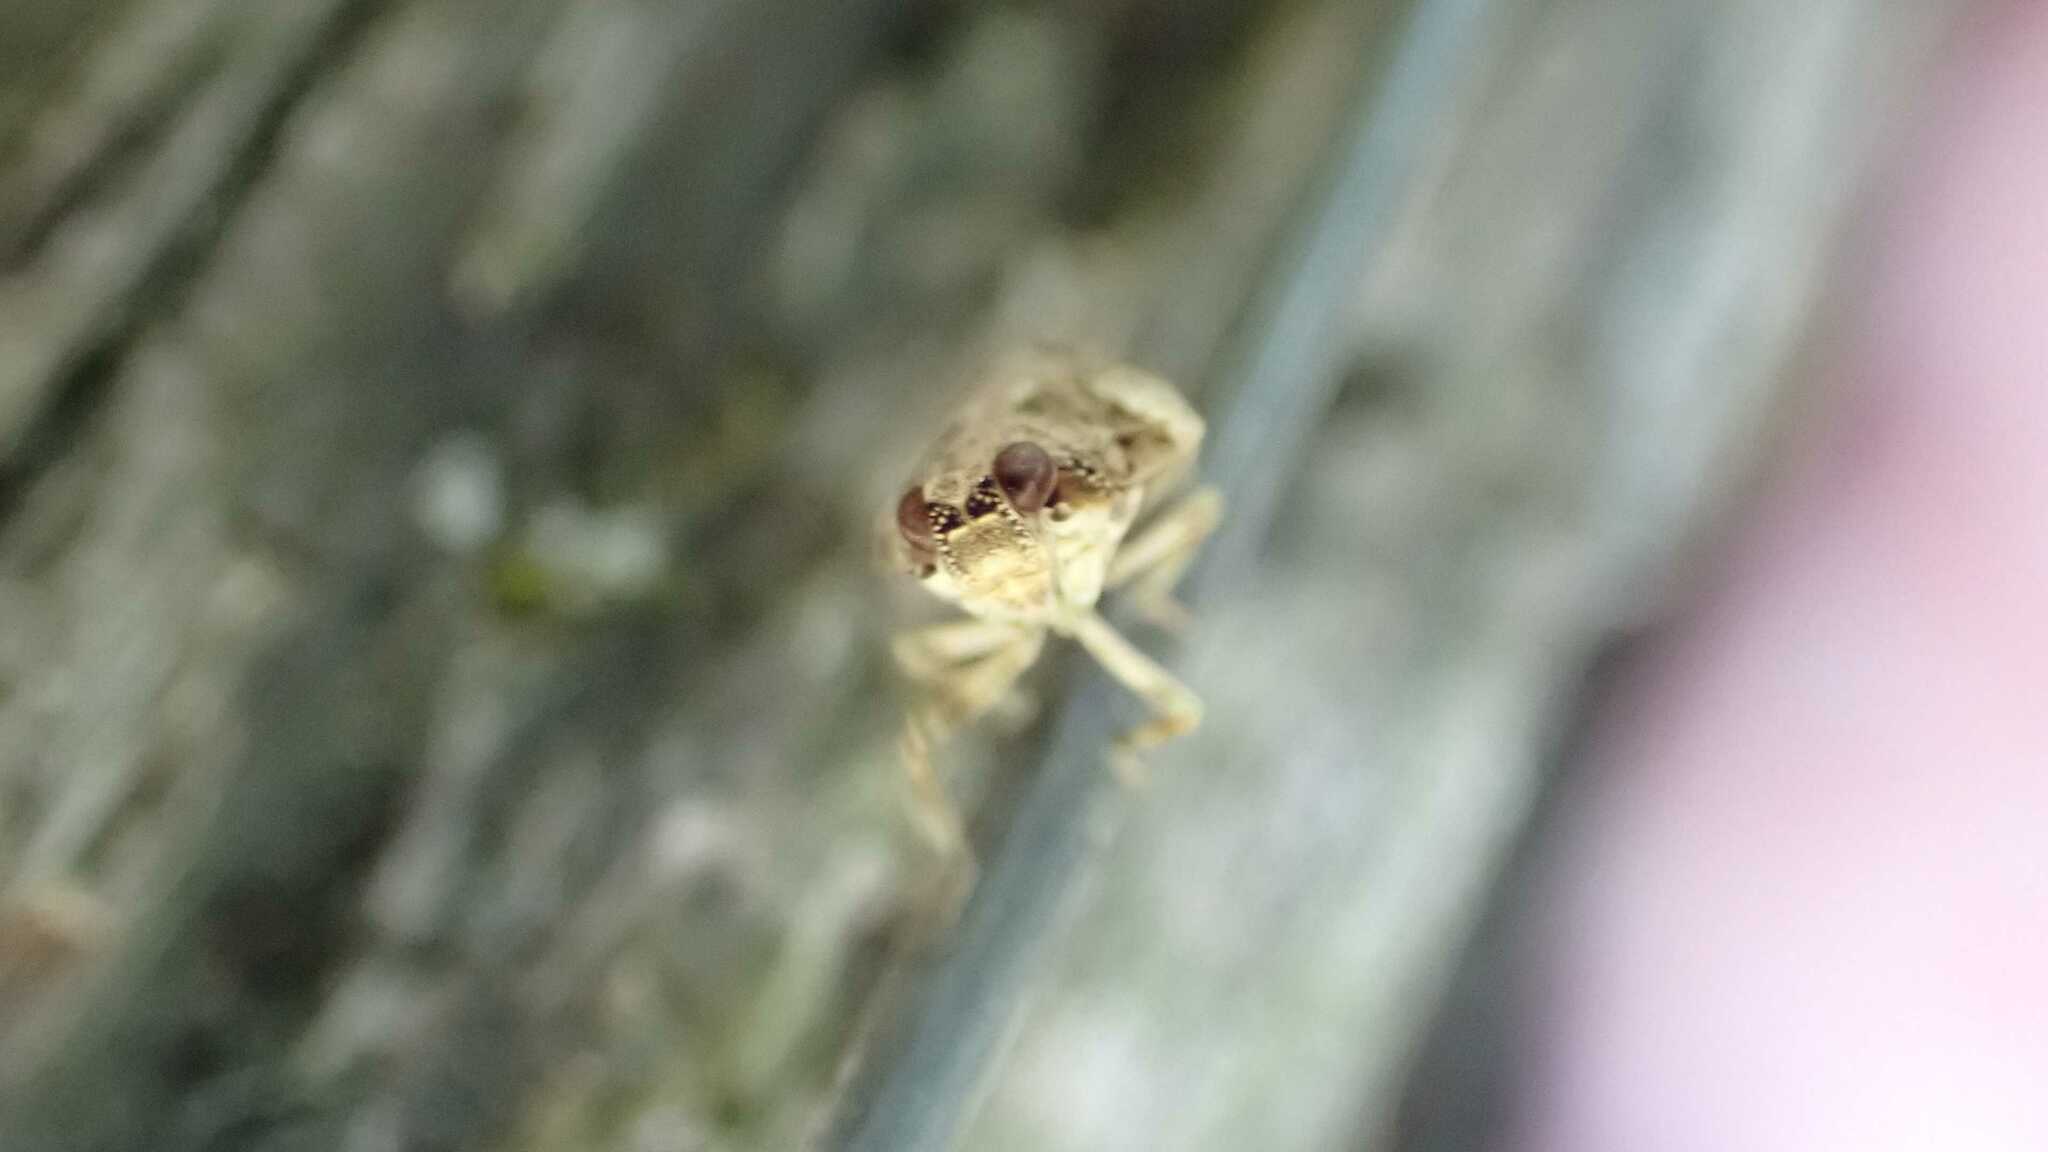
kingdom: Animalia
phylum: Arthropoda
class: Insecta
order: Hemiptera
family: Issidae
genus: Issus
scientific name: Issus coleoptratus
